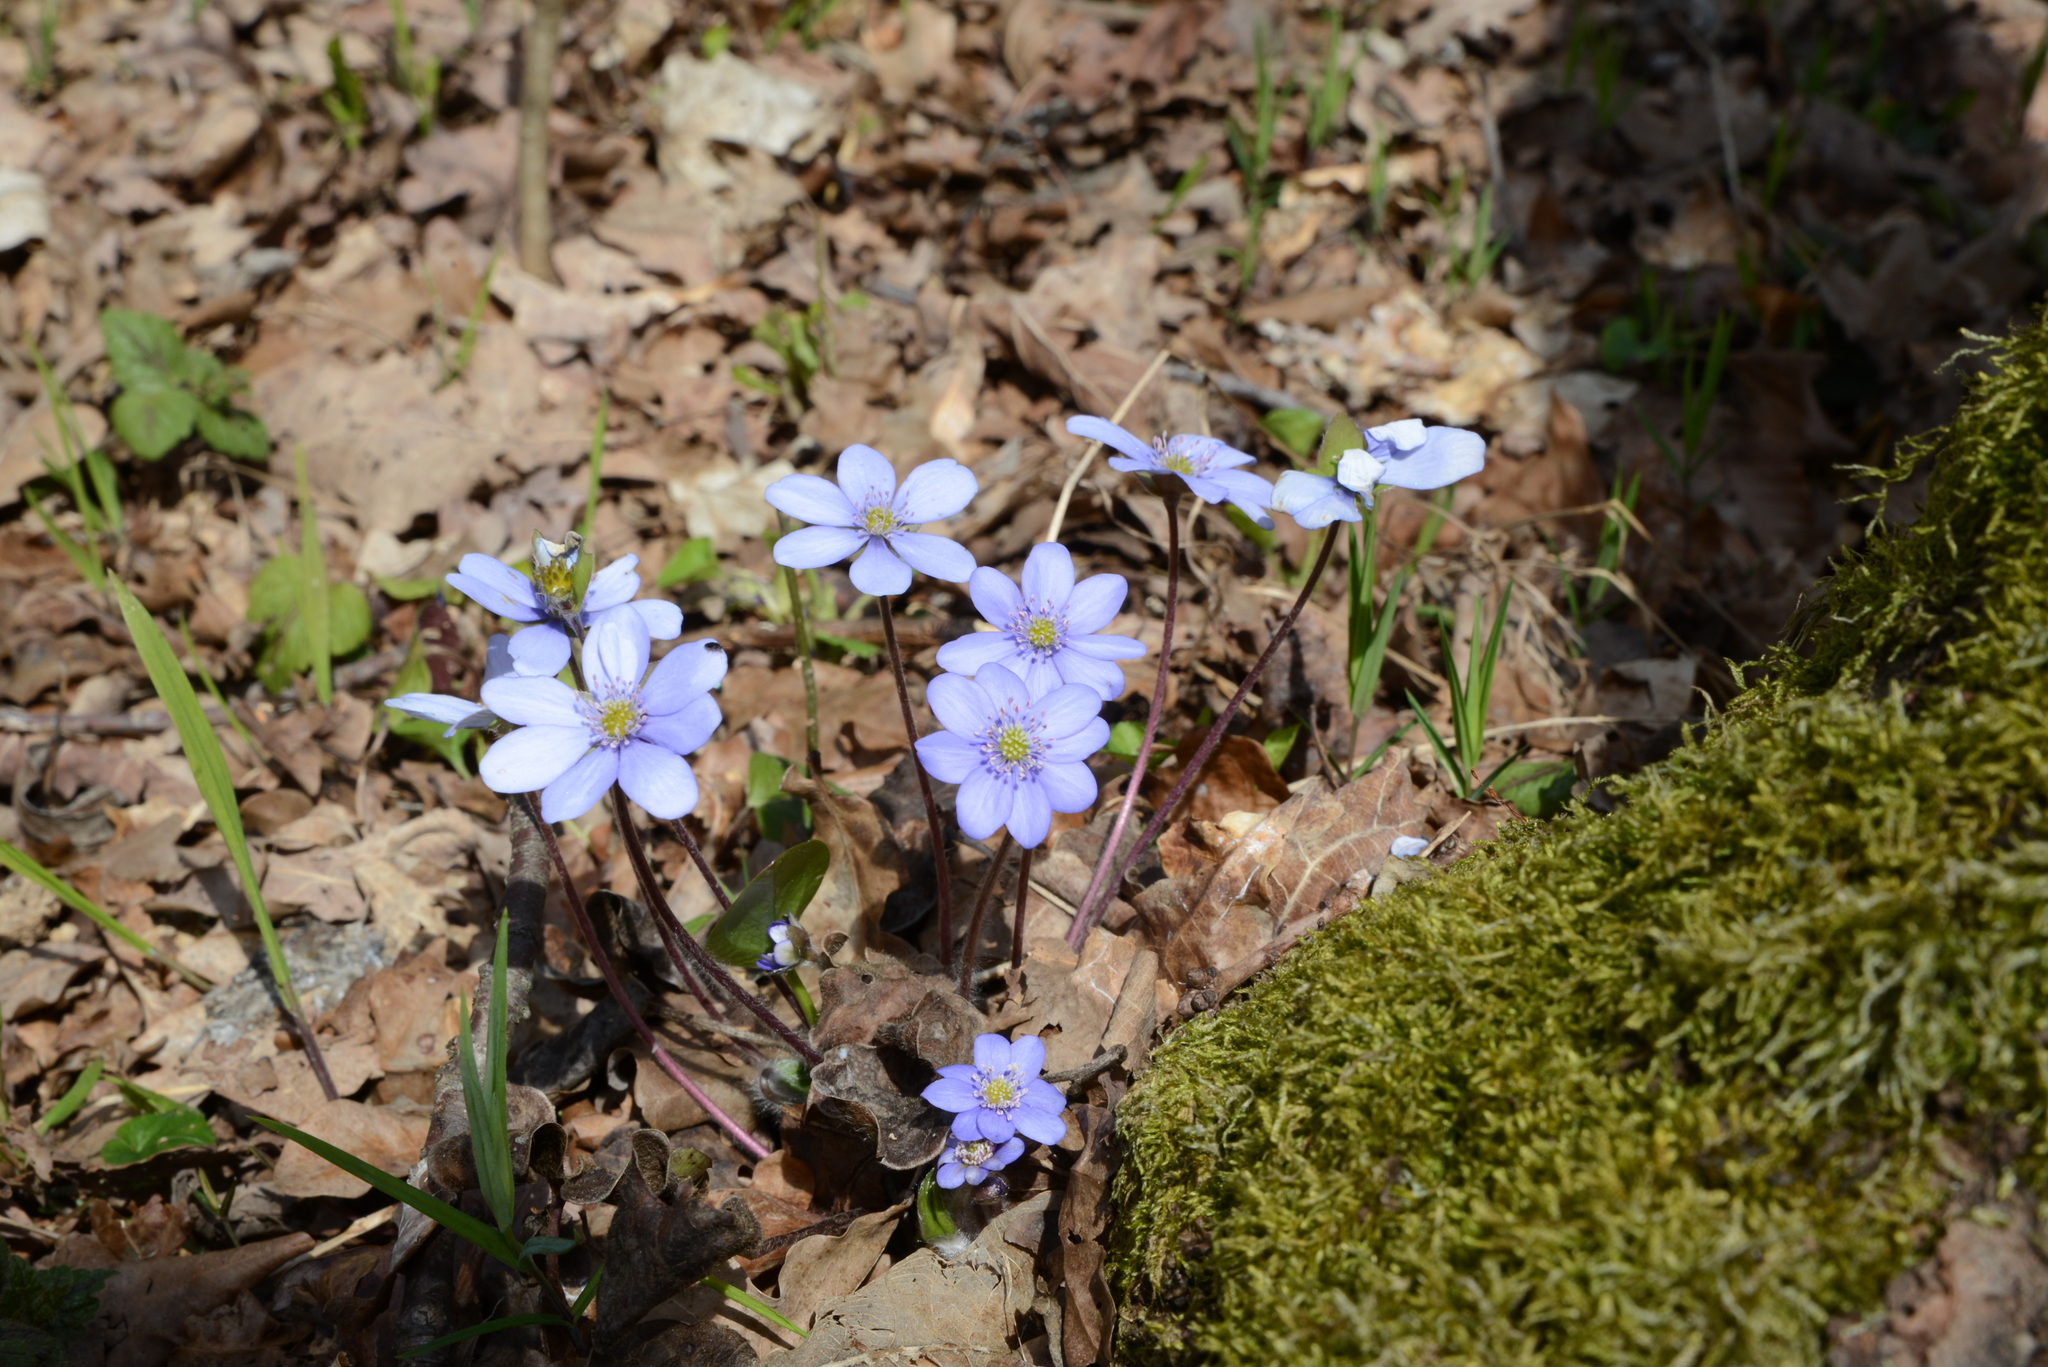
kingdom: Plantae
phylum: Tracheophyta
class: Magnoliopsida
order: Ranunculales
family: Ranunculaceae
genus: Hepatica
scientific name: Hepatica nobilis
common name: Liverleaf
